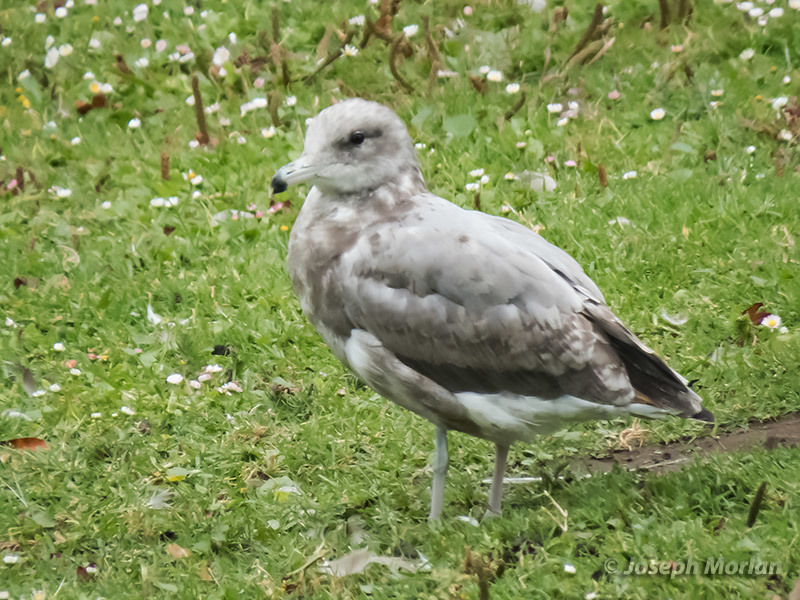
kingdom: Animalia
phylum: Chordata
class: Aves
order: Charadriiformes
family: Laridae
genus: Larus
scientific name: Larus californicus
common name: California gull
